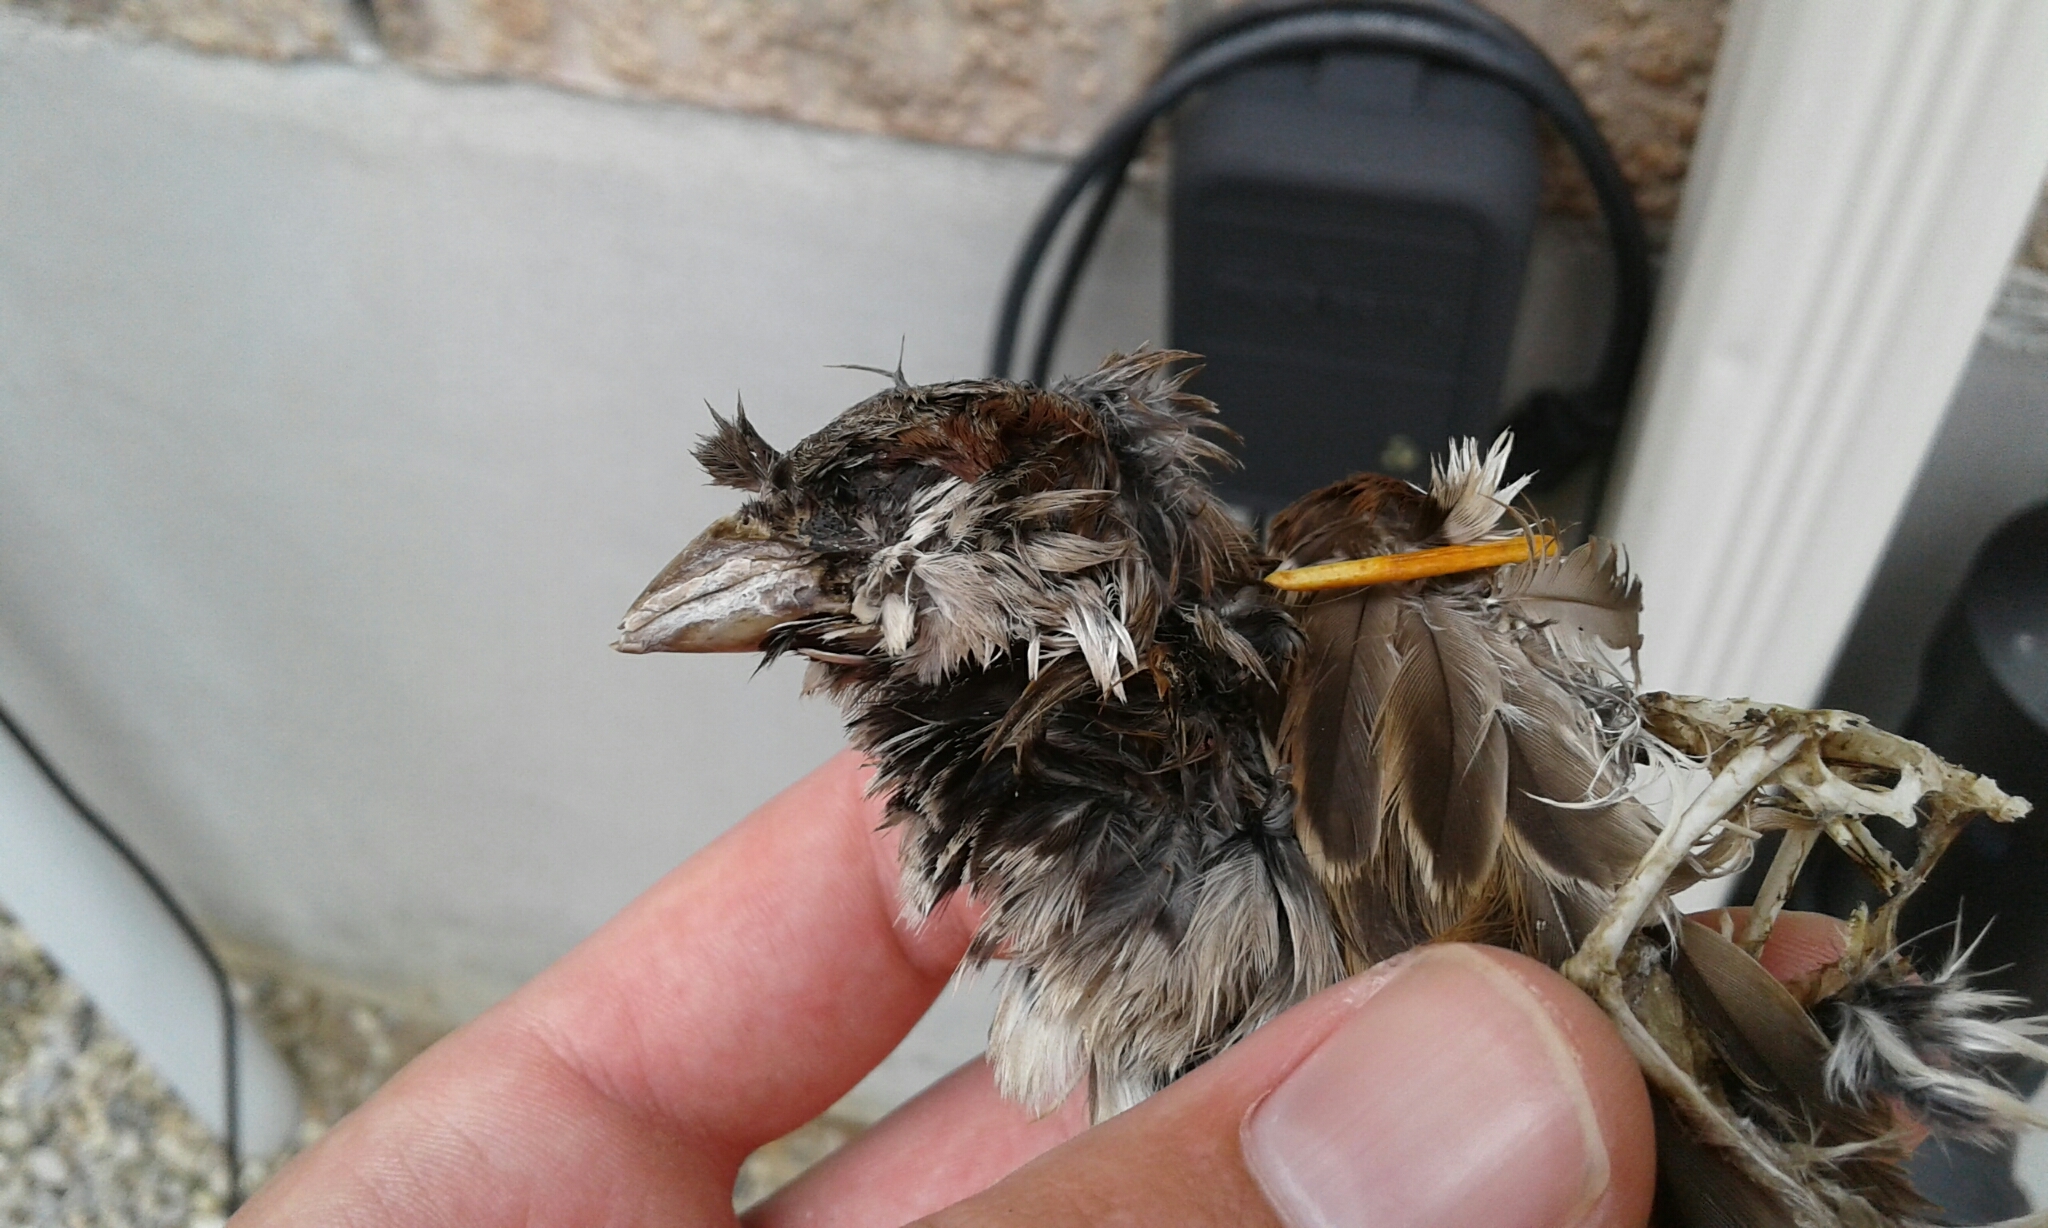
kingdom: Animalia
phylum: Chordata
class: Aves
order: Passeriformes
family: Passeridae
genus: Passer
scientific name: Passer domesticus
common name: House sparrow
